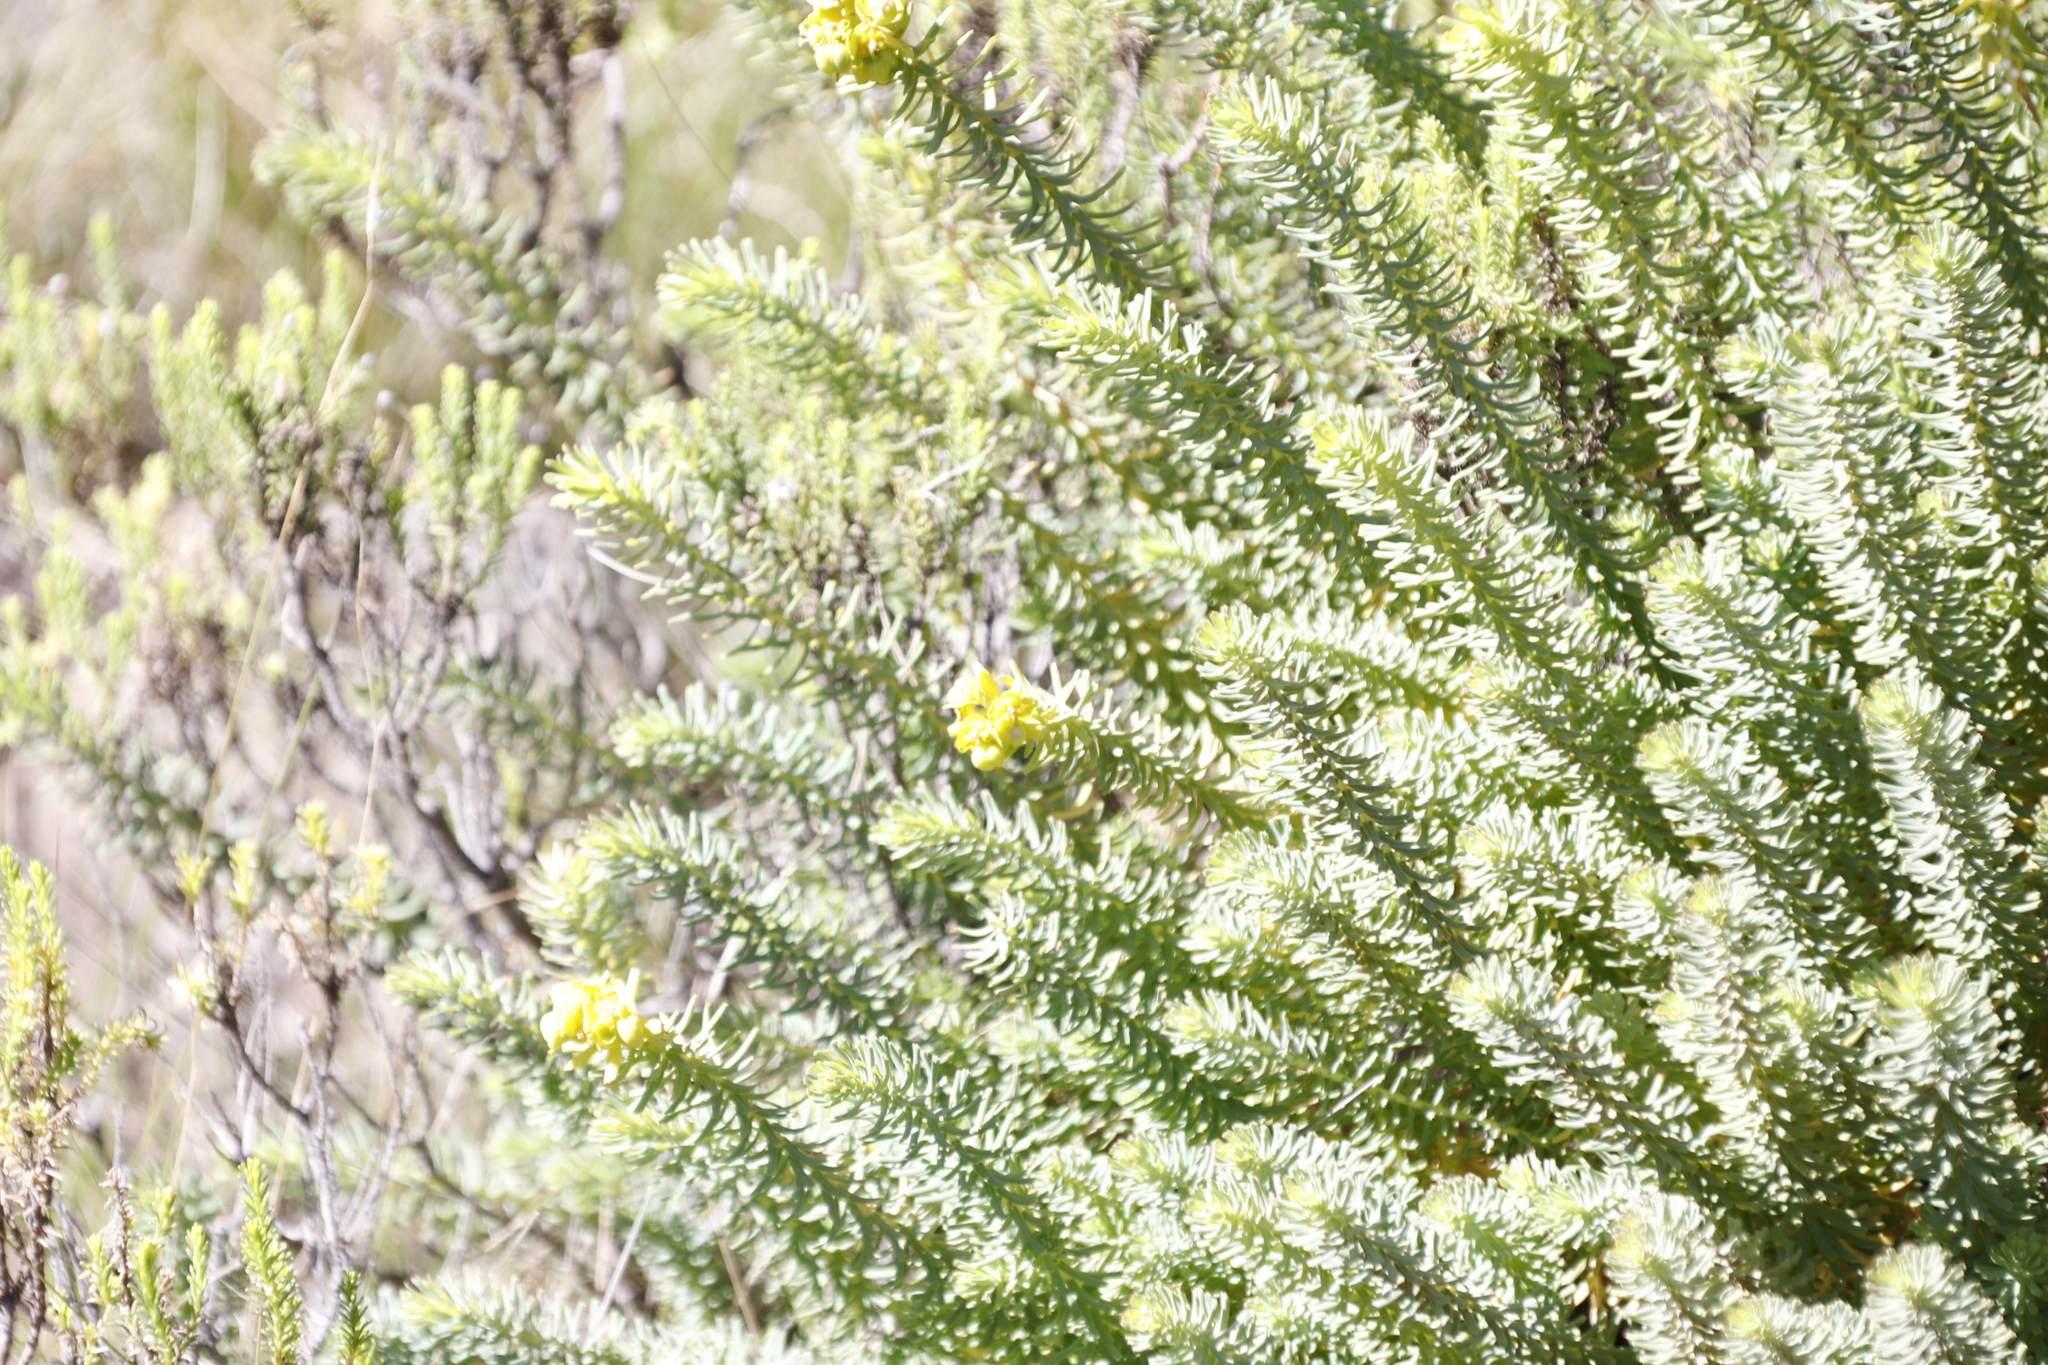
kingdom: Plantae
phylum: Tracheophyta
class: Magnoliopsida
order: Malpighiales
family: Euphorbiaceae
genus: Euphorbia
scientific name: Euphorbia natalensis
